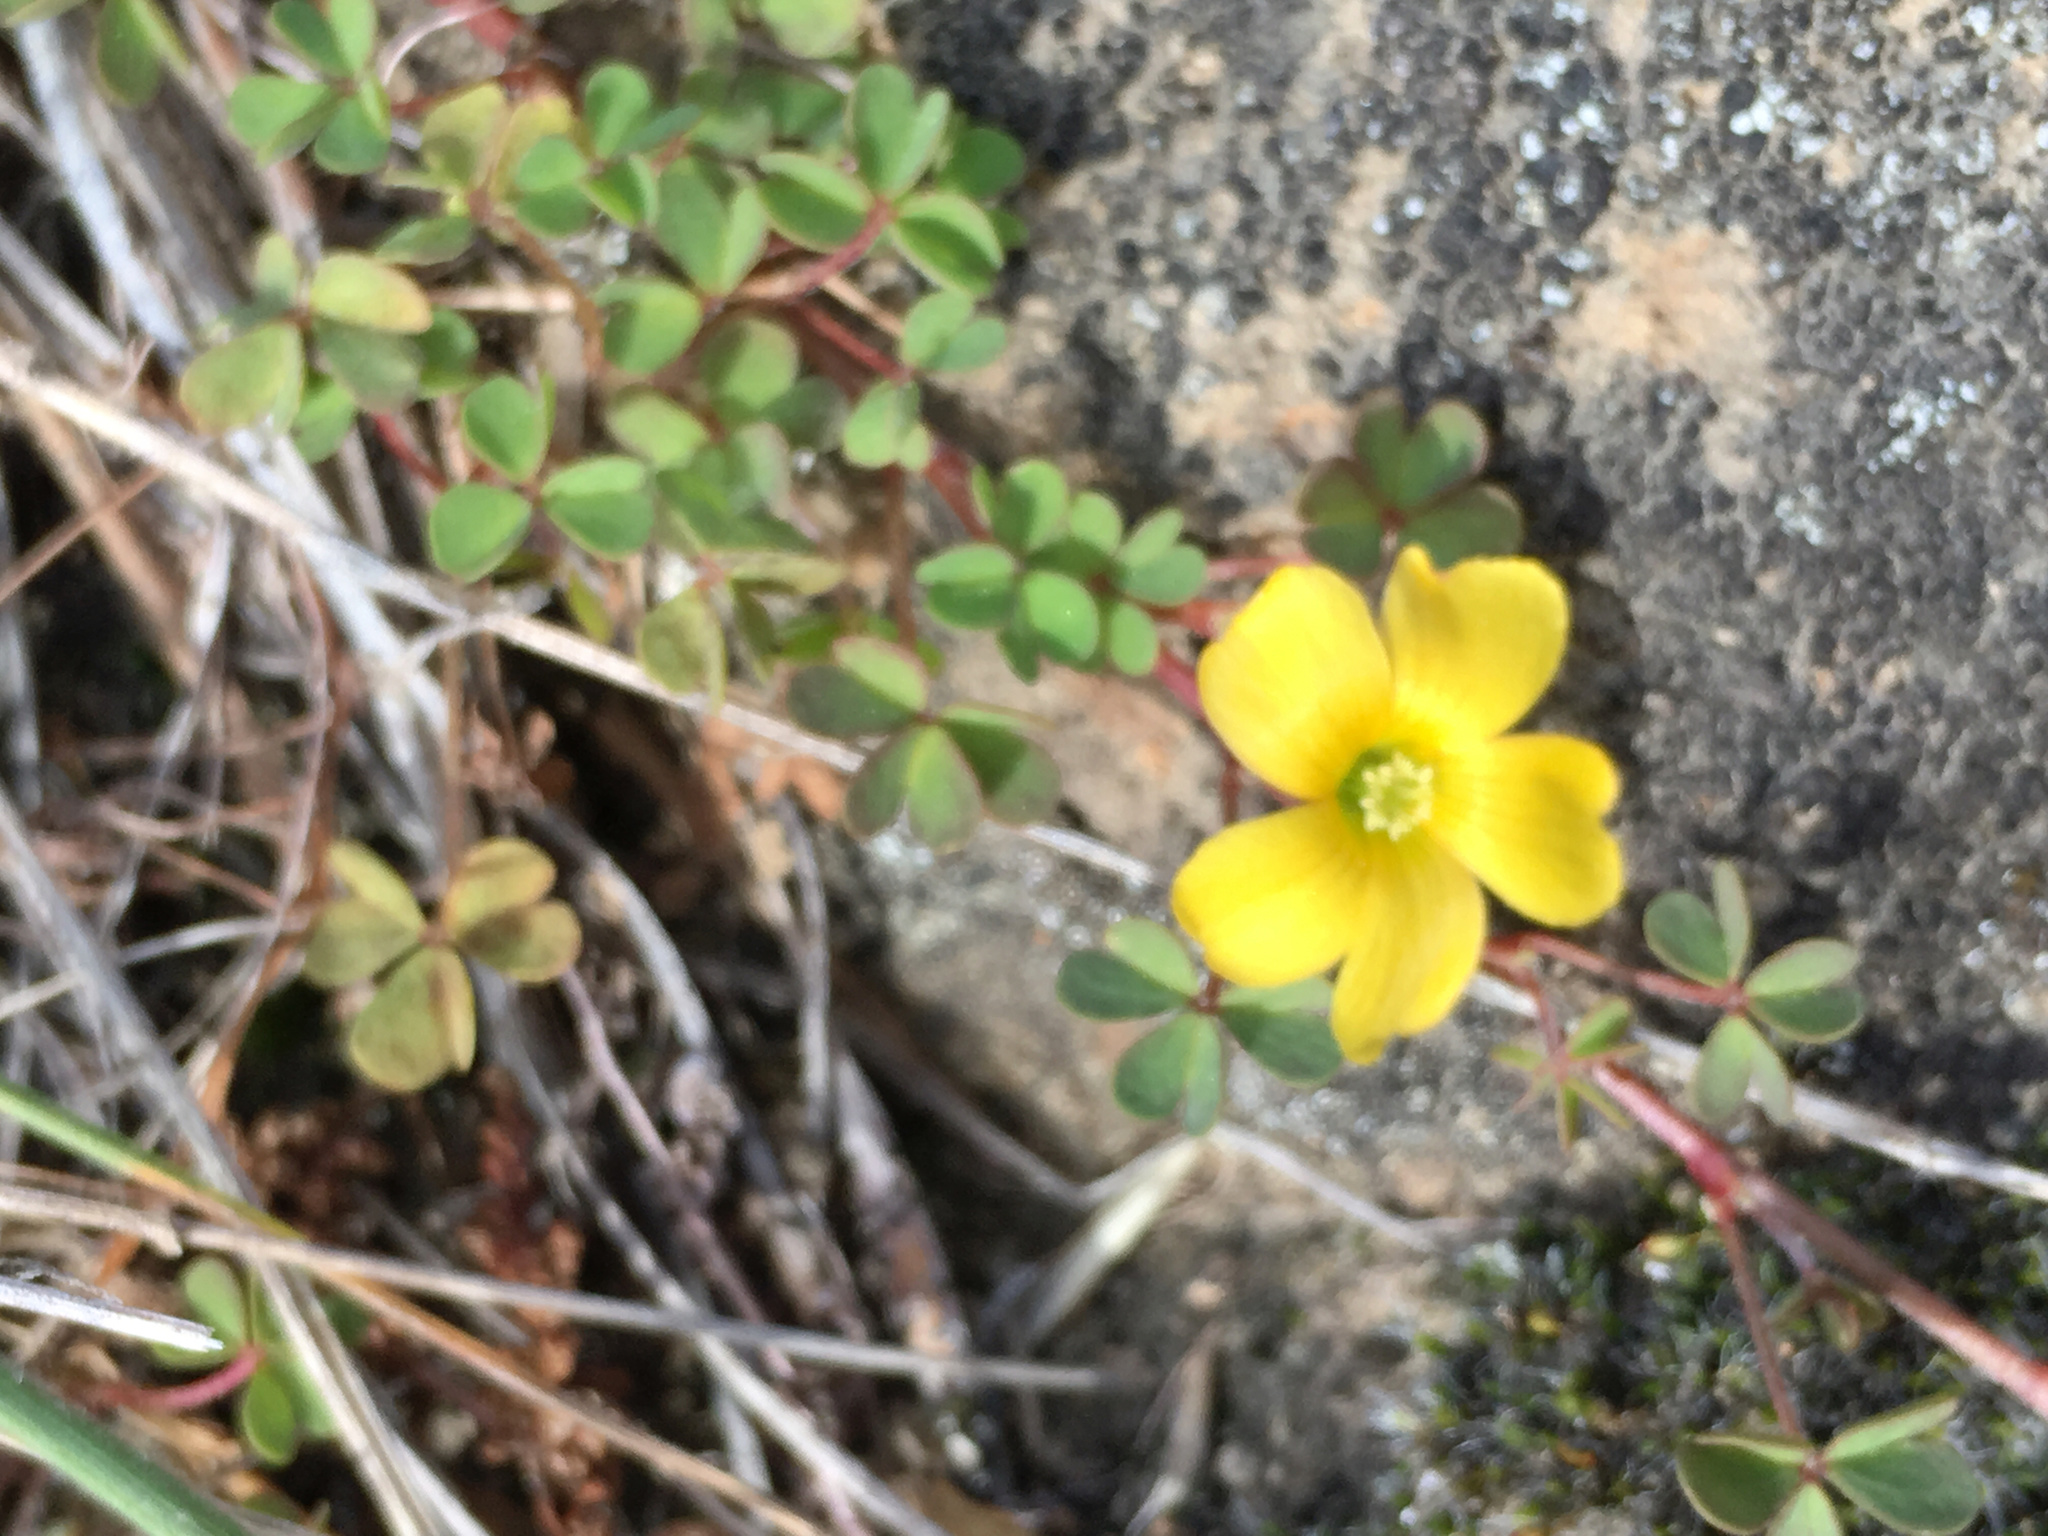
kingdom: Plantae
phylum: Tracheophyta
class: Magnoliopsida
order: Oxalidales
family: Oxalidaceae
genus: Oxalis
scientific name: Oxalis exilis
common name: Least yellow-sorrel
